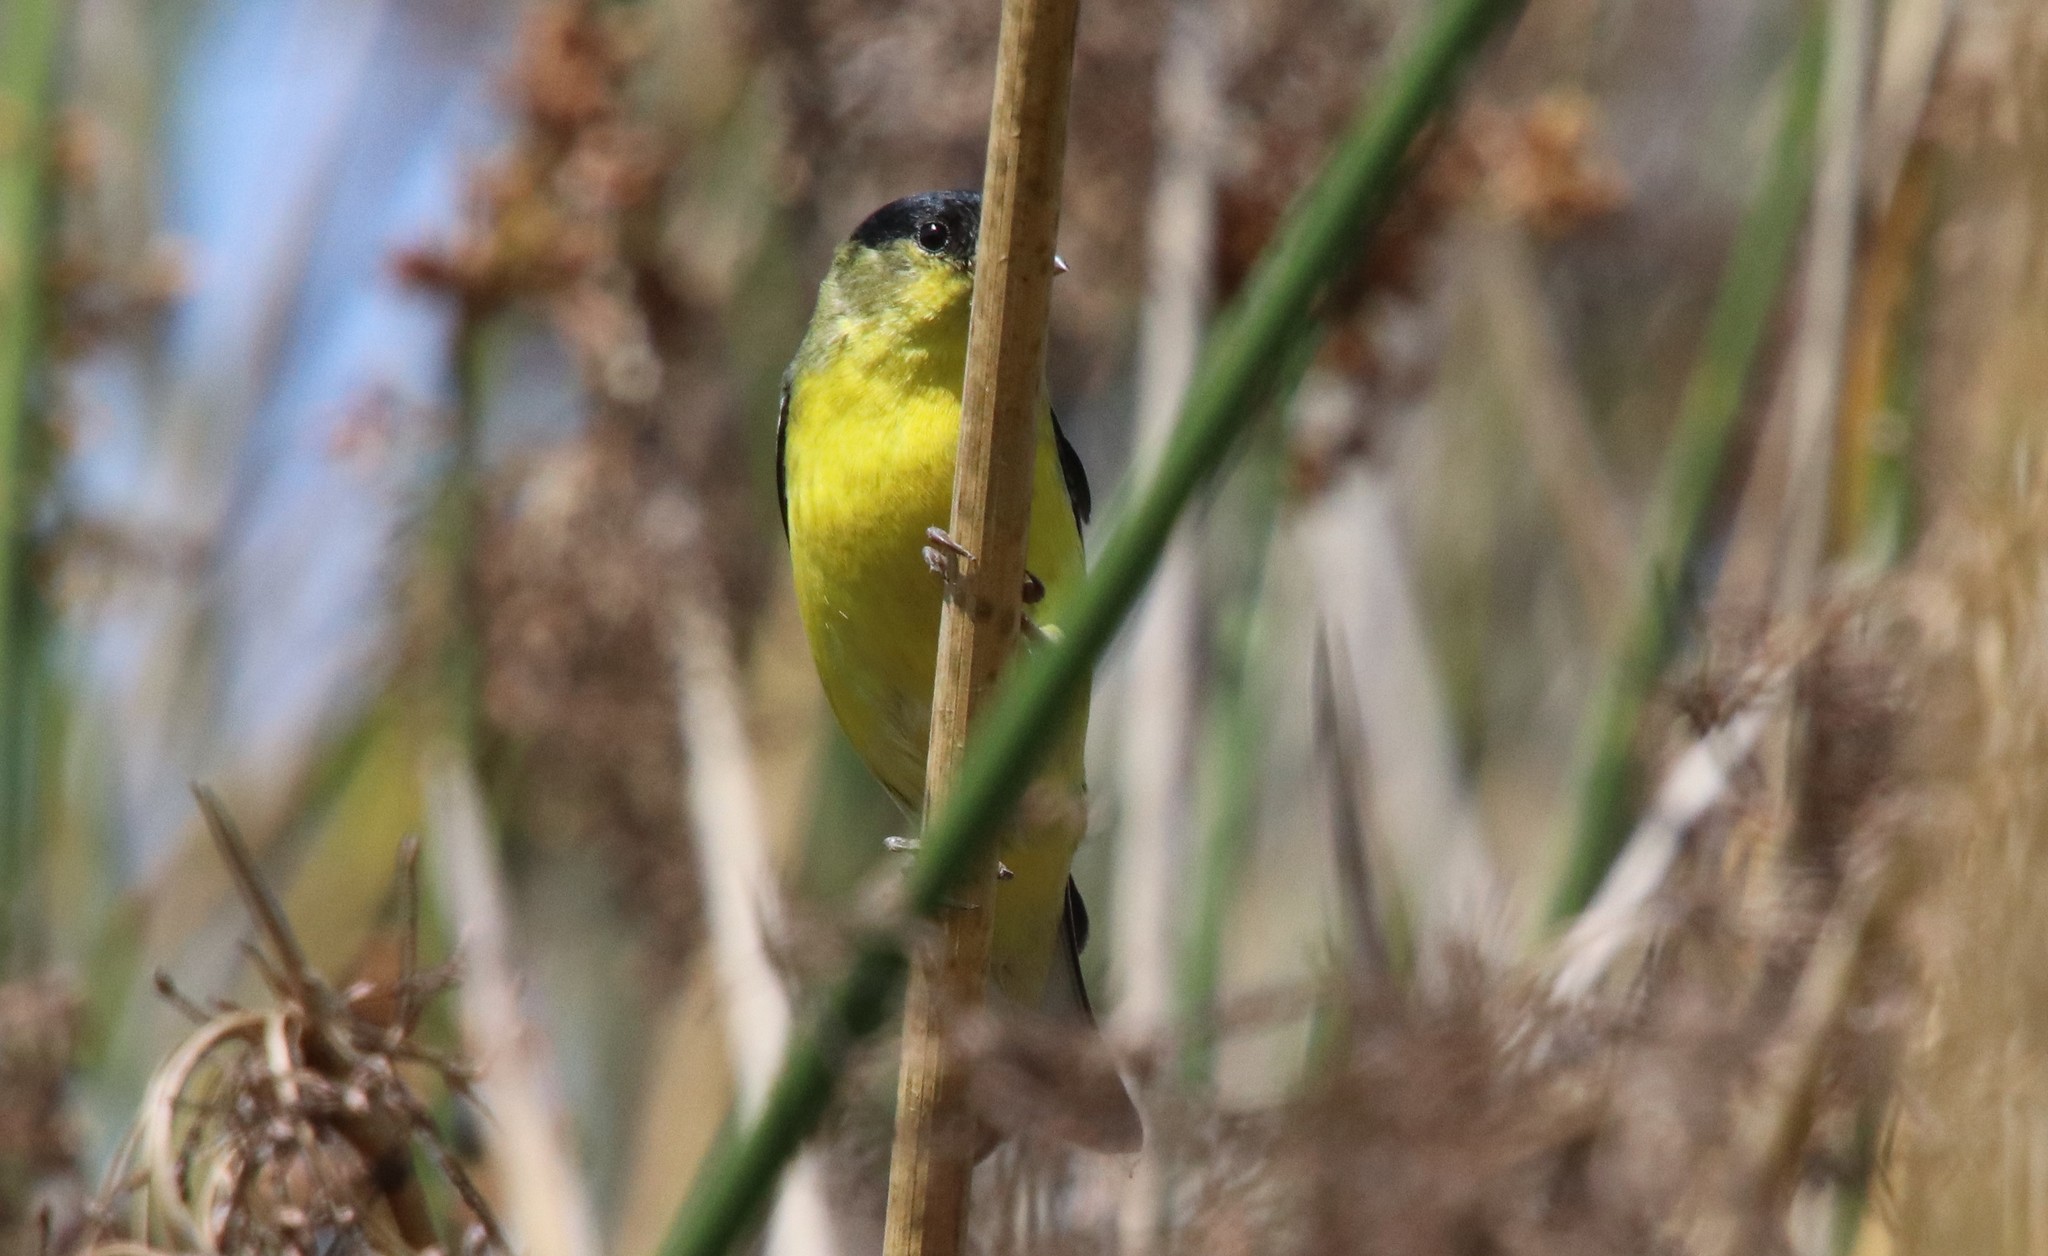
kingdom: Animalia
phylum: Chordata
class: Aves
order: Passeriformes
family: Fringillidae
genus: Spinus
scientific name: Spinus psaltria
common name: Lesser goldfinch
